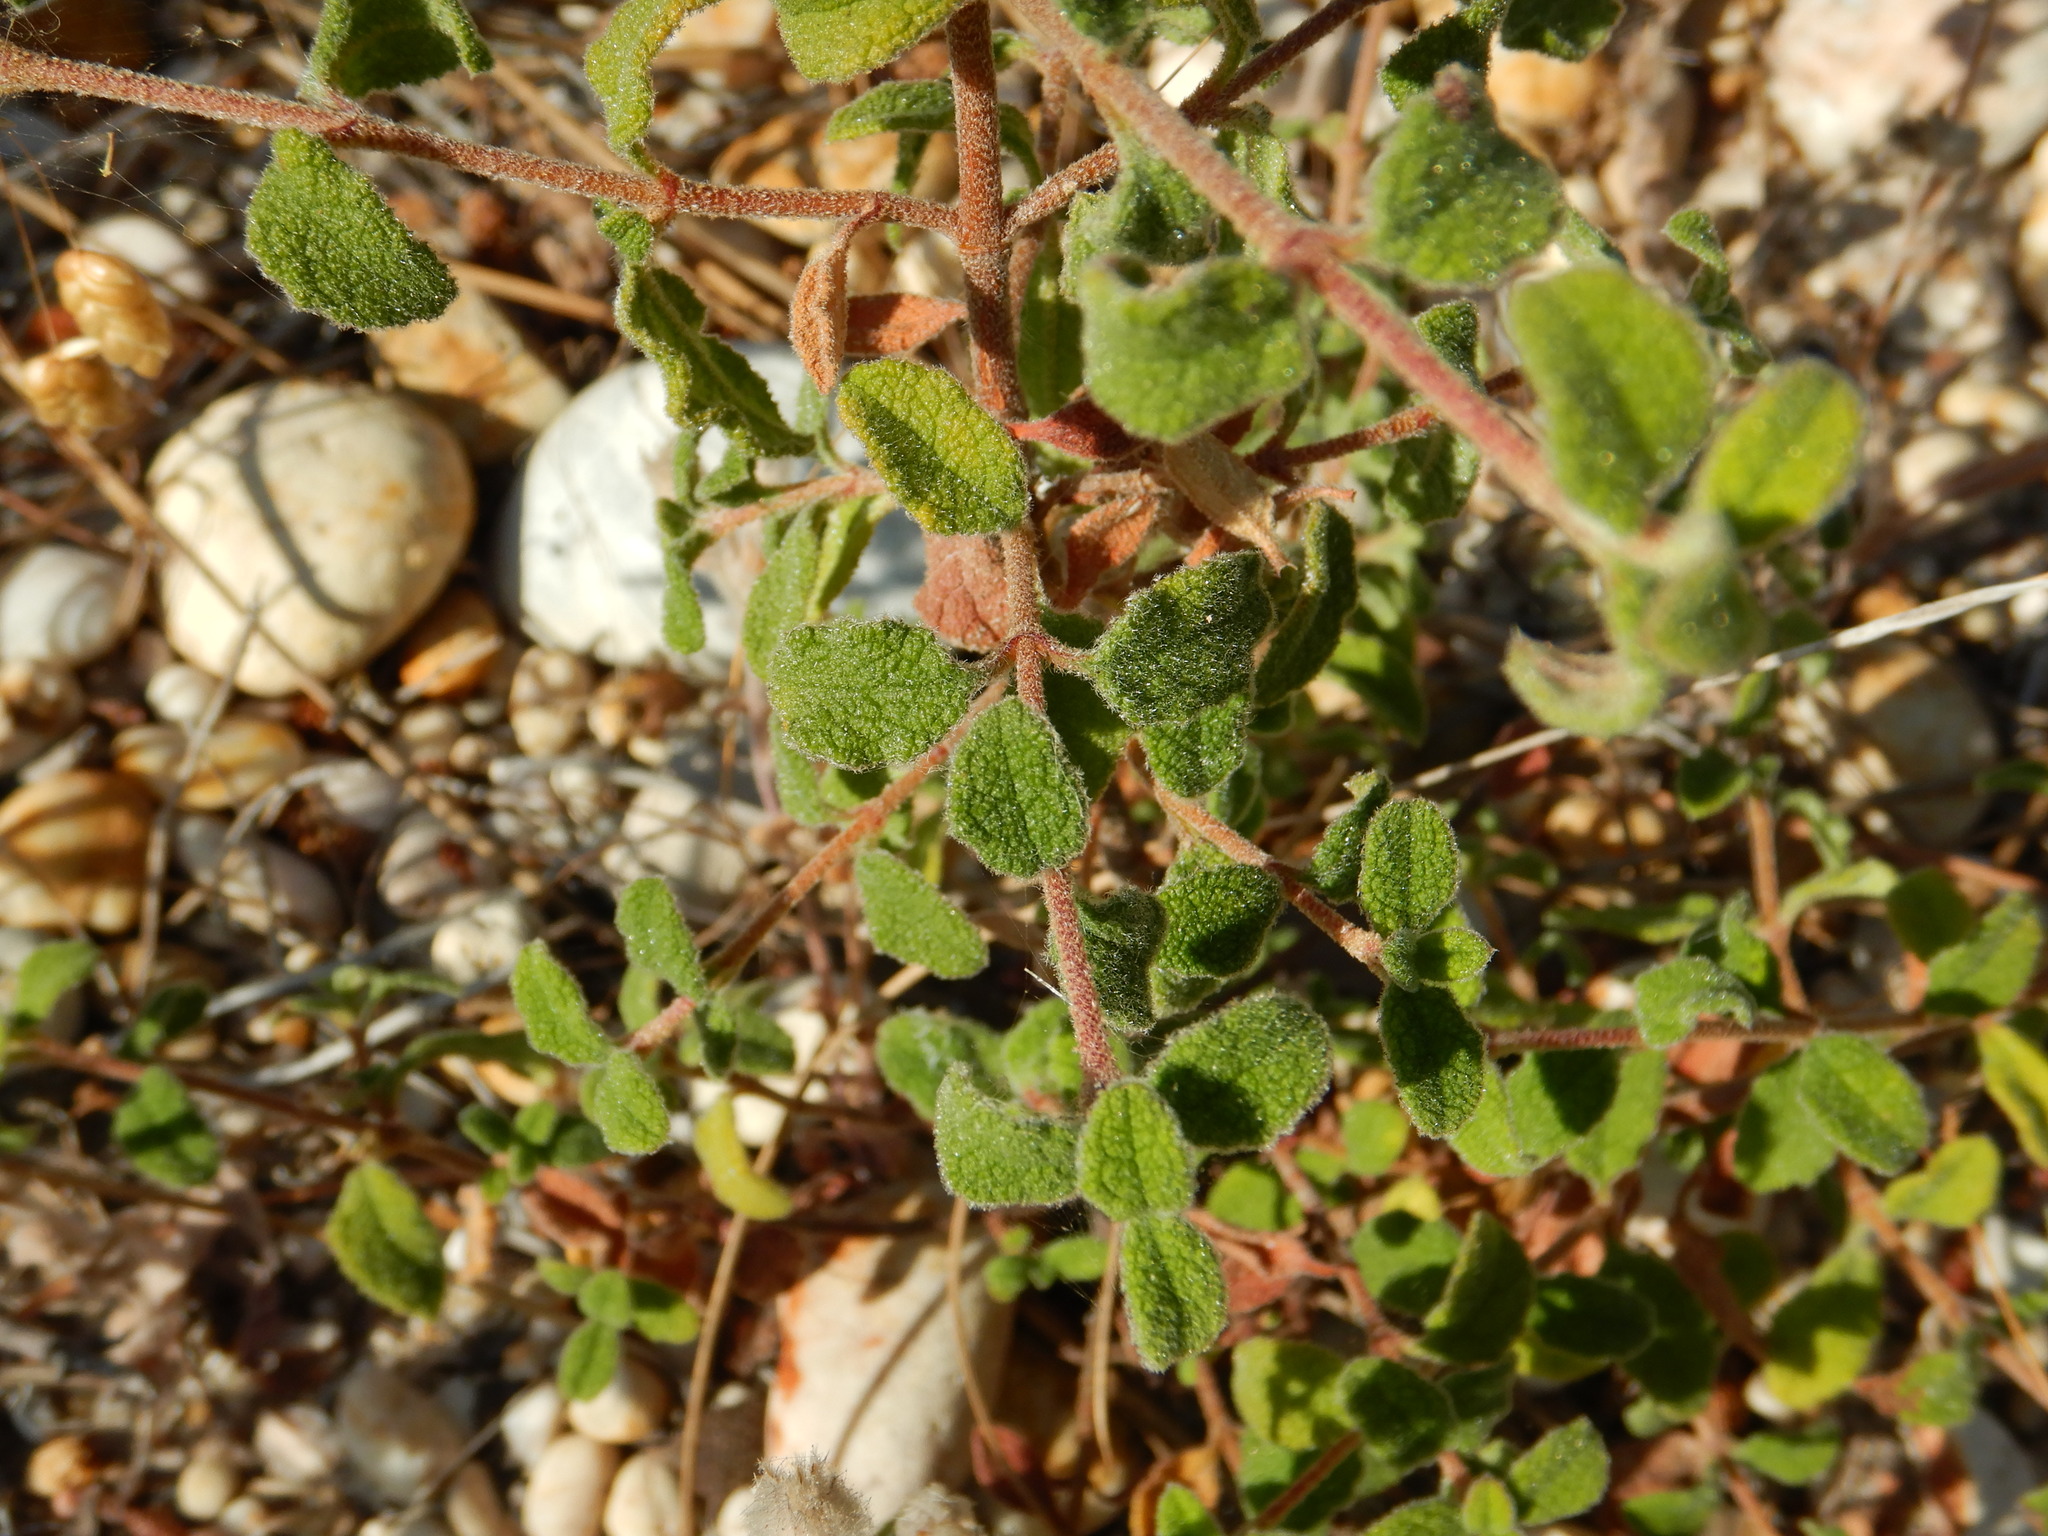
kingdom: Plantae
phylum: Tracheophyta
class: Magnoliopsida
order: Malvales
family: Cistaceae
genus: Cistus
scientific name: Cistus salviifolius
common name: Salvia cistus
